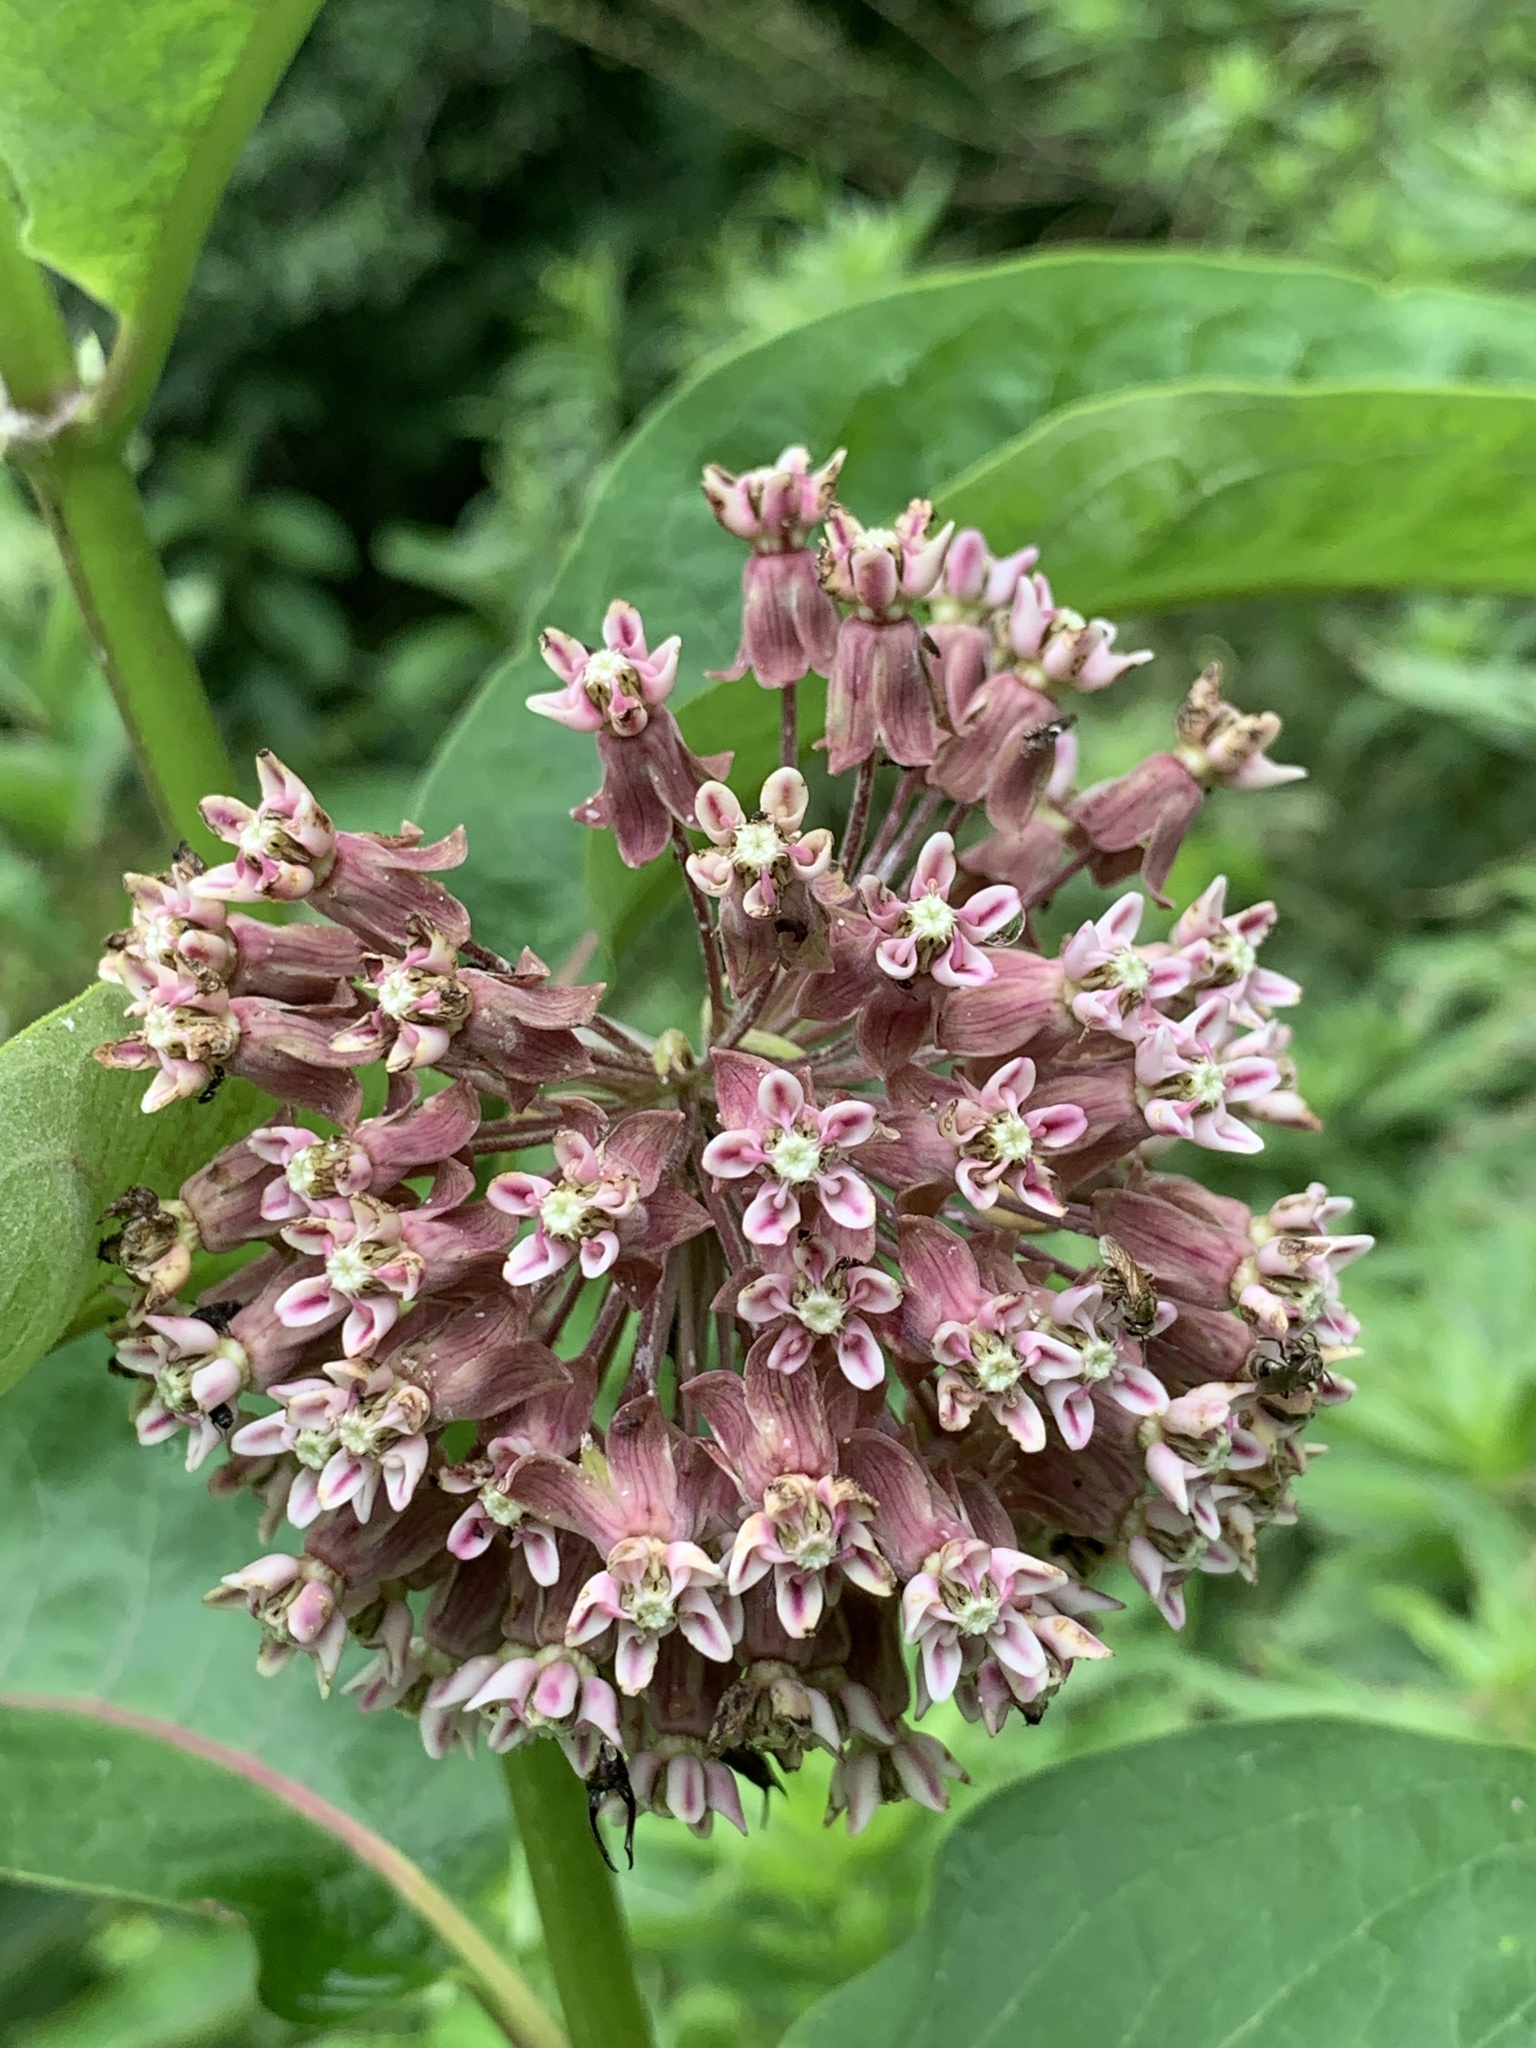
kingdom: Plantae
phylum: Tracheophyta
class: Magnoliopsida
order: Gentianales
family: Apocynaceae
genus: Asclepias
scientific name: Asclepias syriaca
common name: Common milkweed
